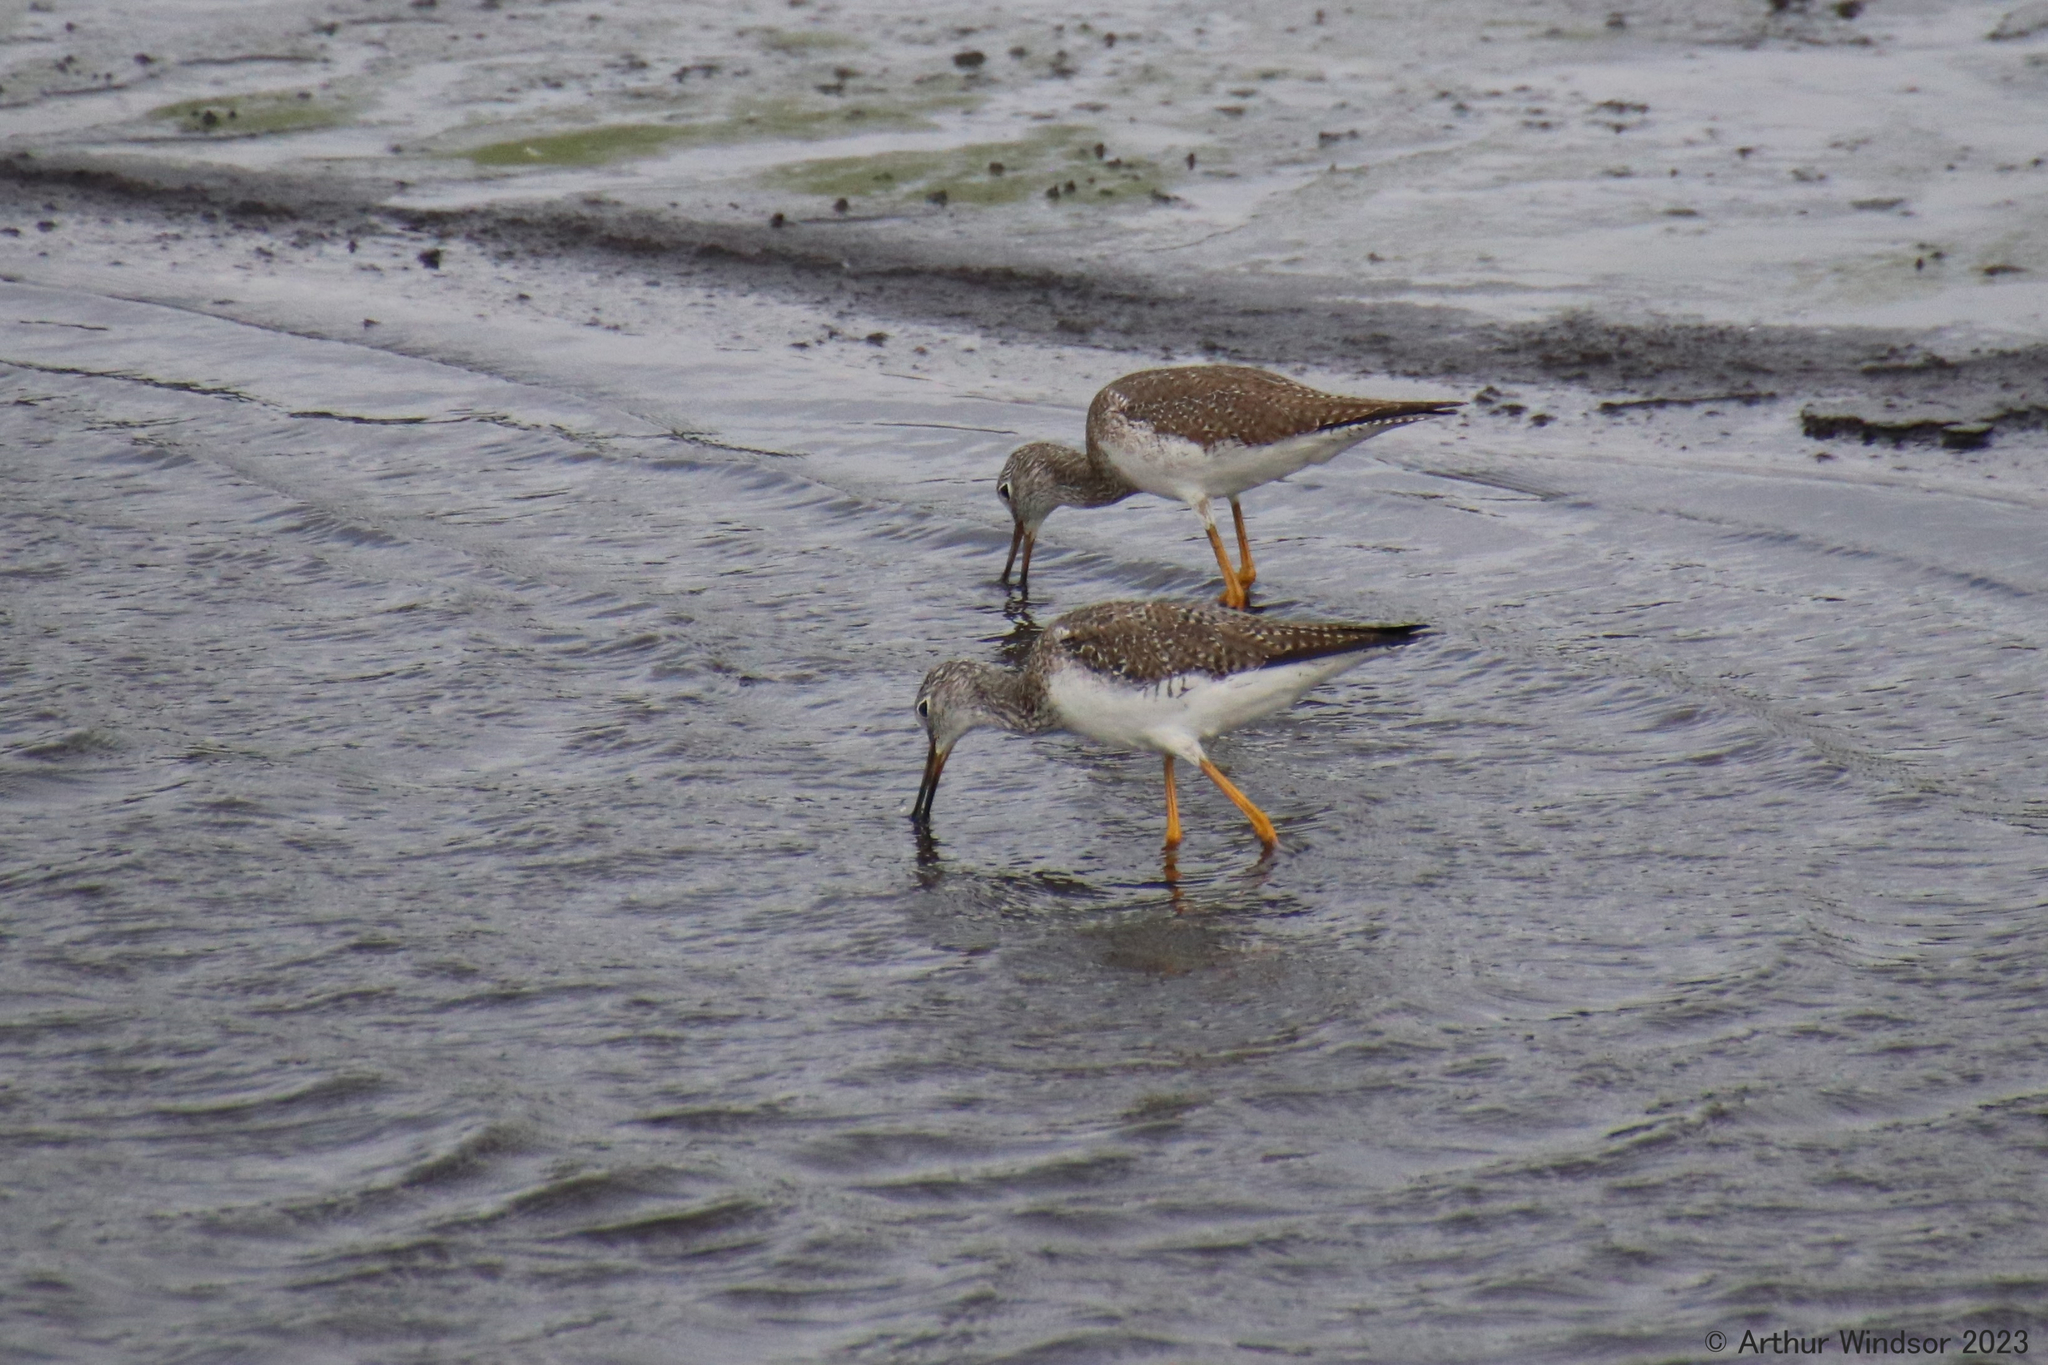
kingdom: Animalia
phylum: Chordata
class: Aves
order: Charadriiformes
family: Scolopacidae
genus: Tringa
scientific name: Tringa melanoleuca
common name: Greater yellowlegs
